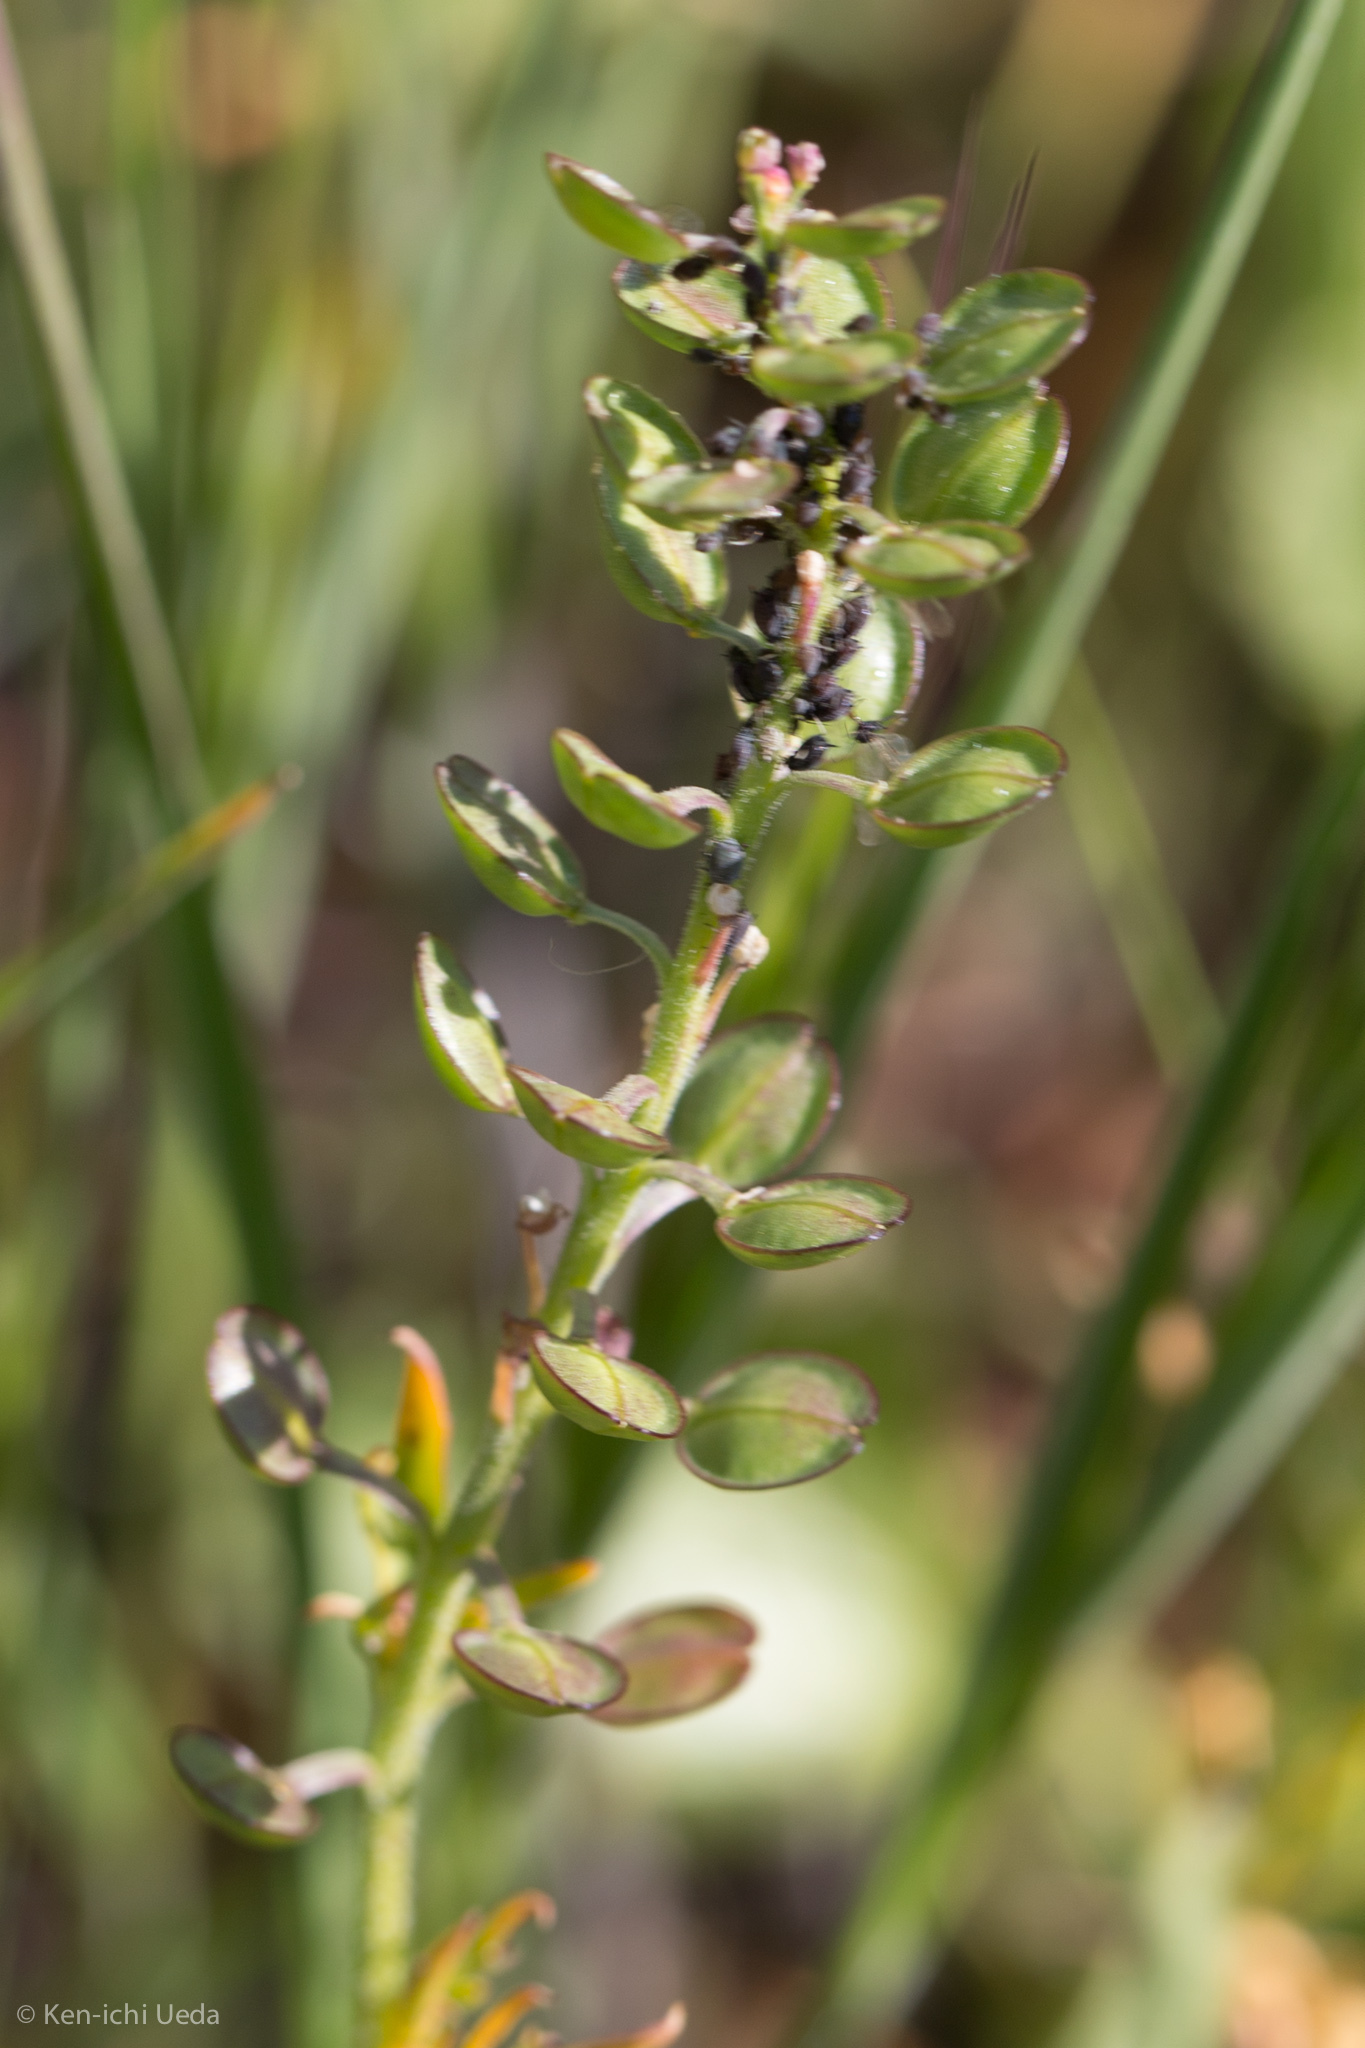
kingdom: Plantae
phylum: Tracheophyta
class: Magnoliopsida
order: Brassicales
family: Brassicaceae
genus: Lepidium
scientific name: Lepidium nitidum
